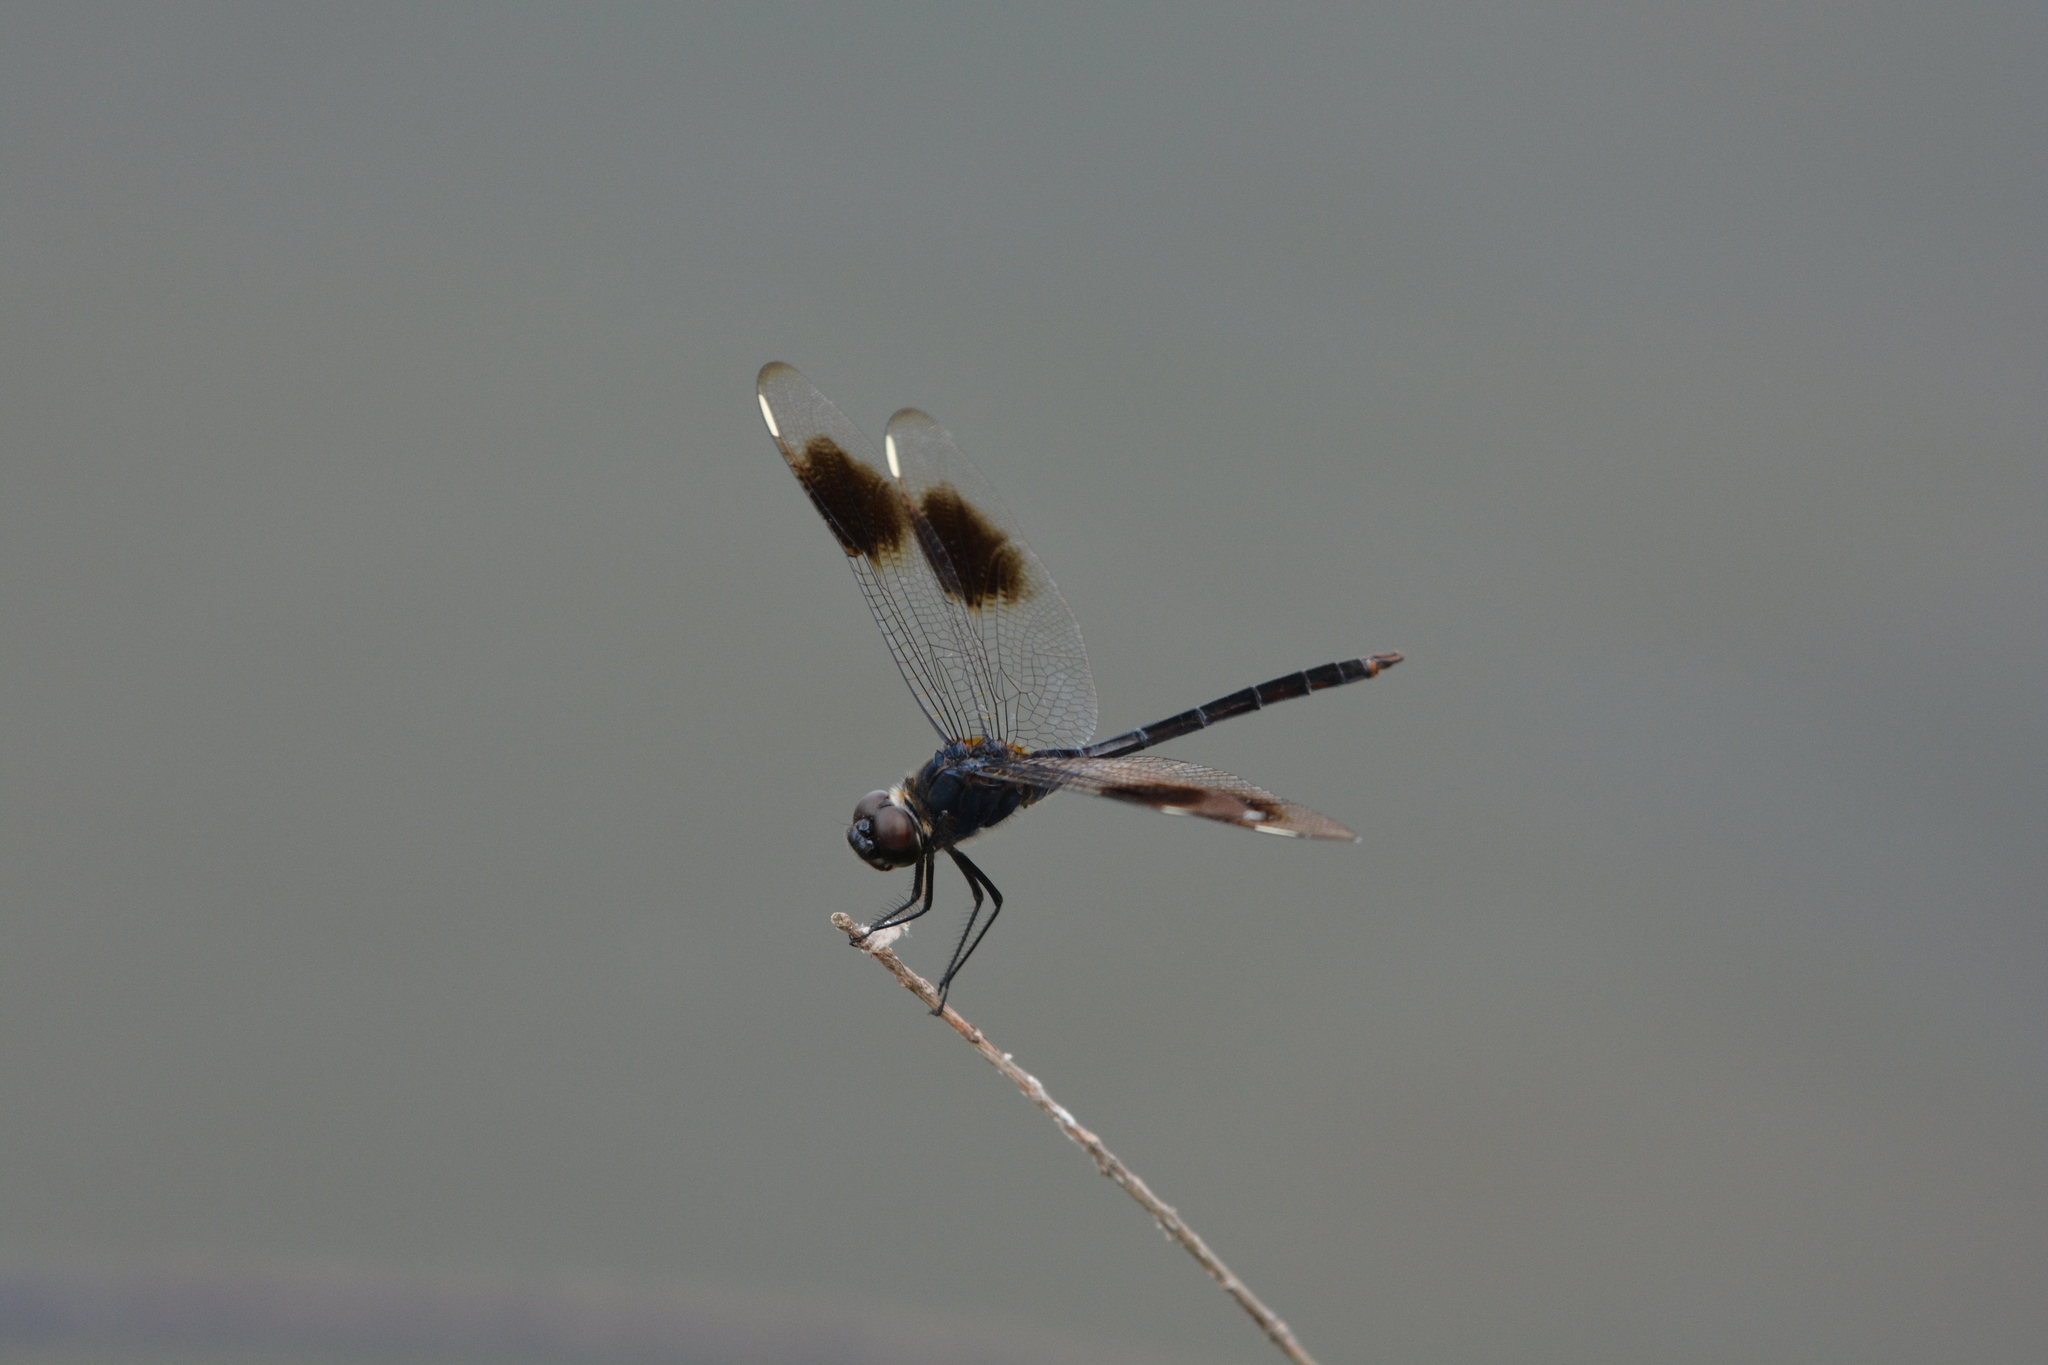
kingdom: Animalia
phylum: Arthropoda
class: Insecta
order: Odonata
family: Libellulidae
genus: Brachymesia
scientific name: Brachymesia gravida
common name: Four-spotted pennant
